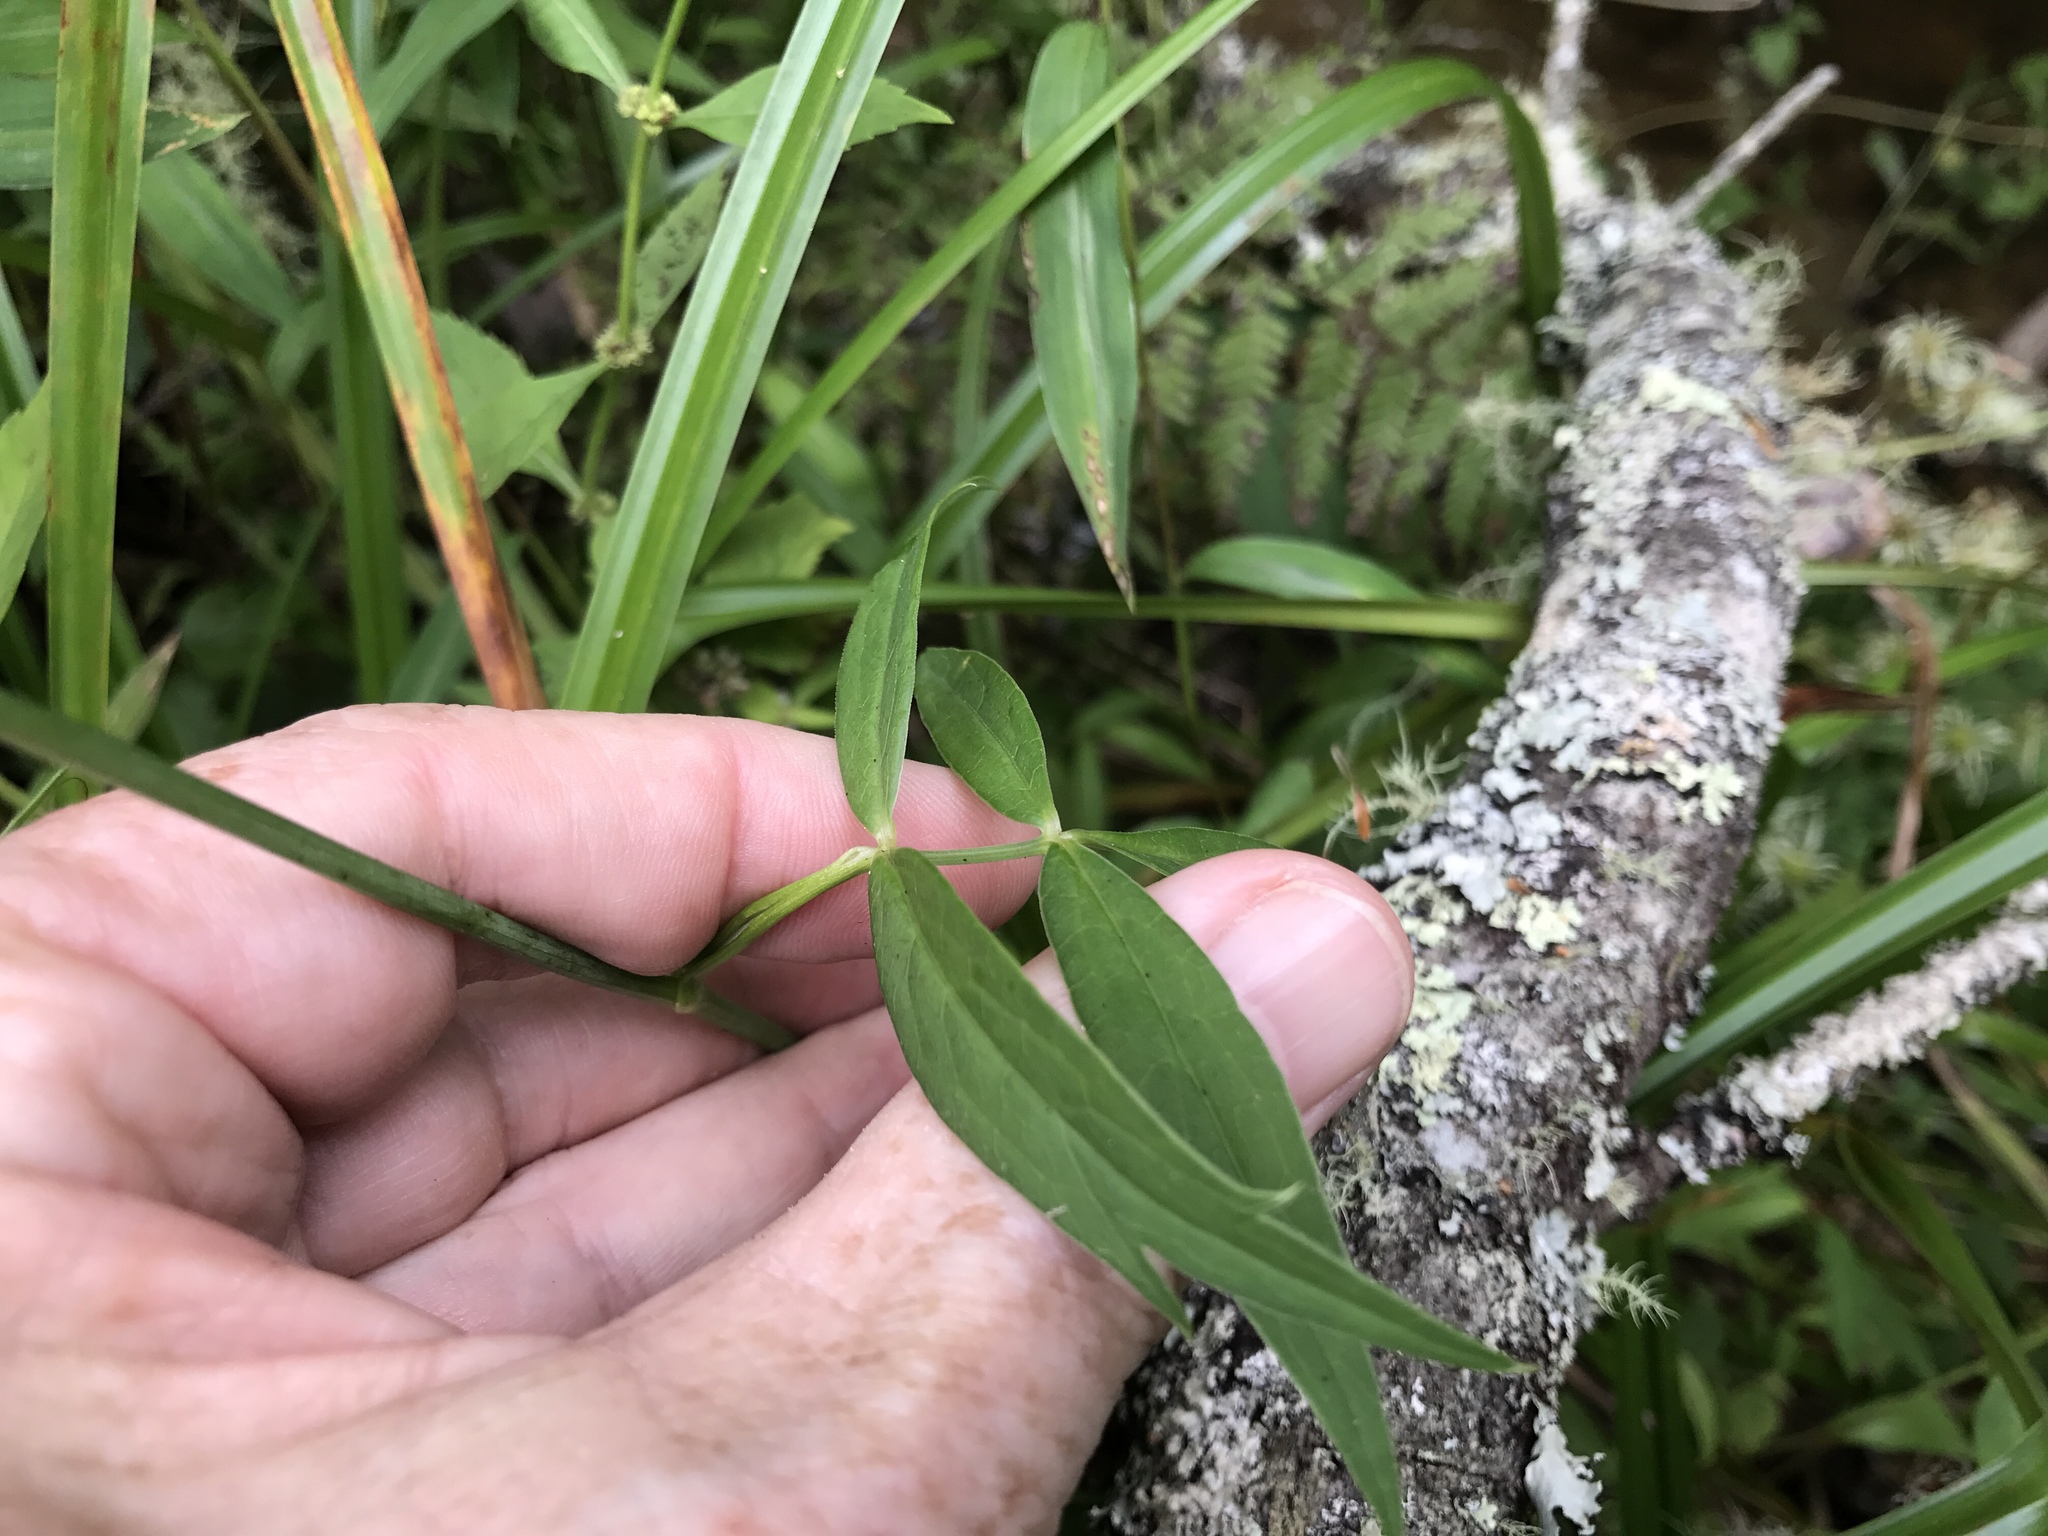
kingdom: Plantae
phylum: Tracheophyta
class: Magnoliopsida
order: Apiales
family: Apiaceae
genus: Oxypolis
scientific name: Oxypolis rigidior
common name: Cowbane
